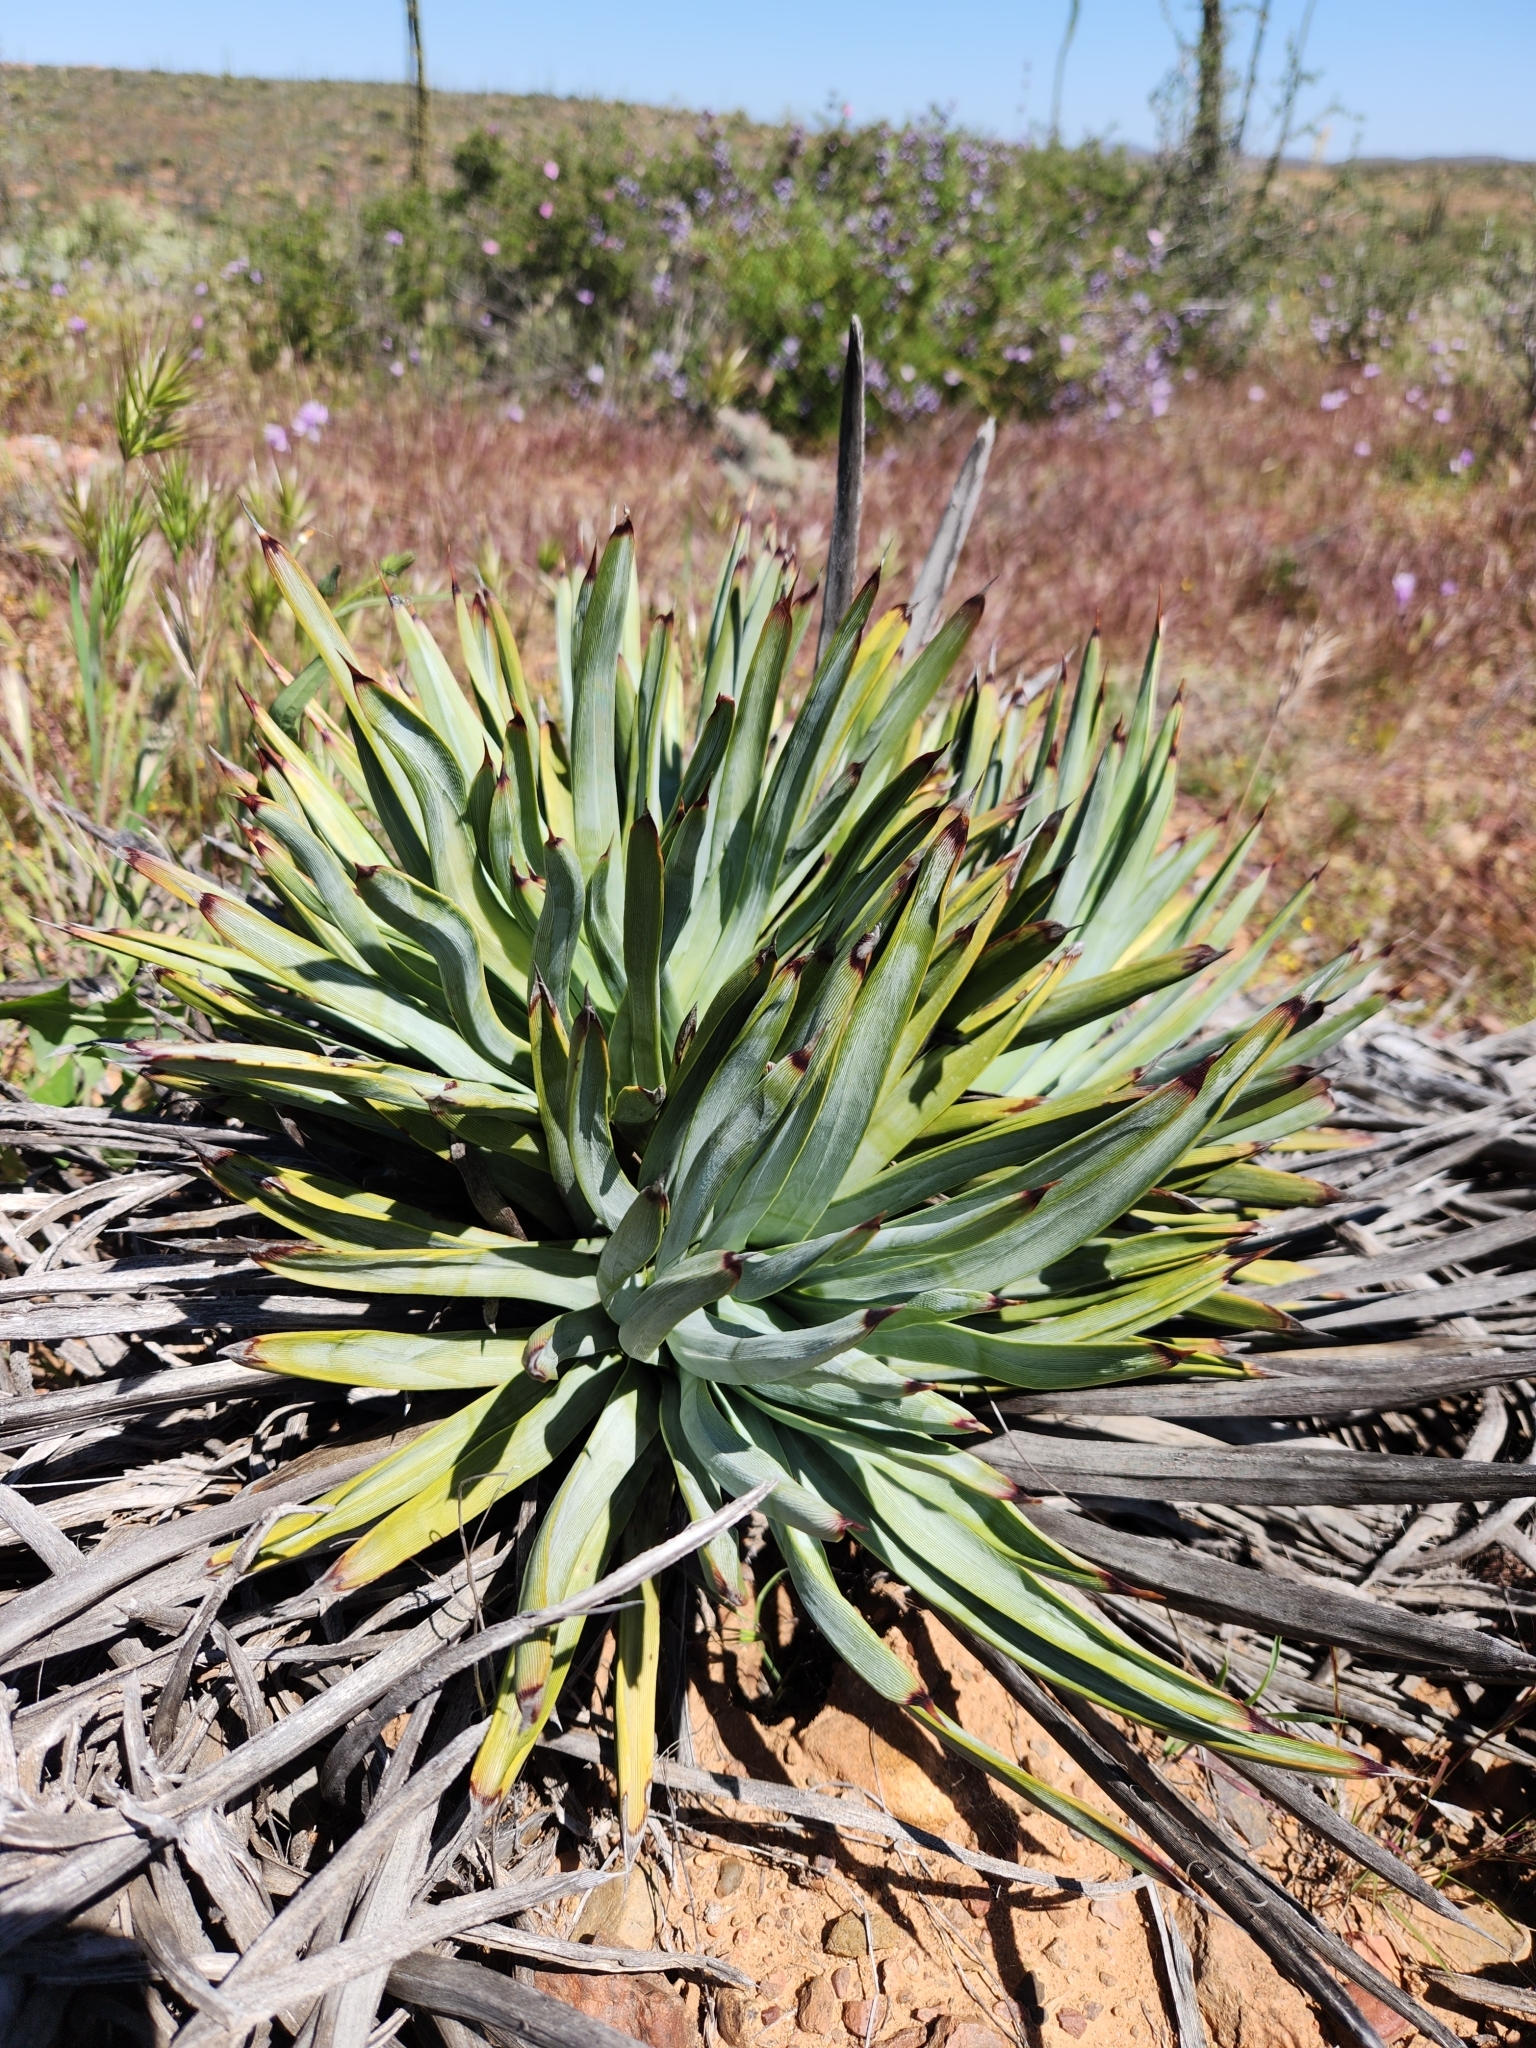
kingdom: Plantae
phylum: Tracheophyta
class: Liliopsida
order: Asparagales
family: Asparagaceae
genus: Hesperoyucca
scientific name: Hesperoyucca whipplei
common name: Our lord's-candle
